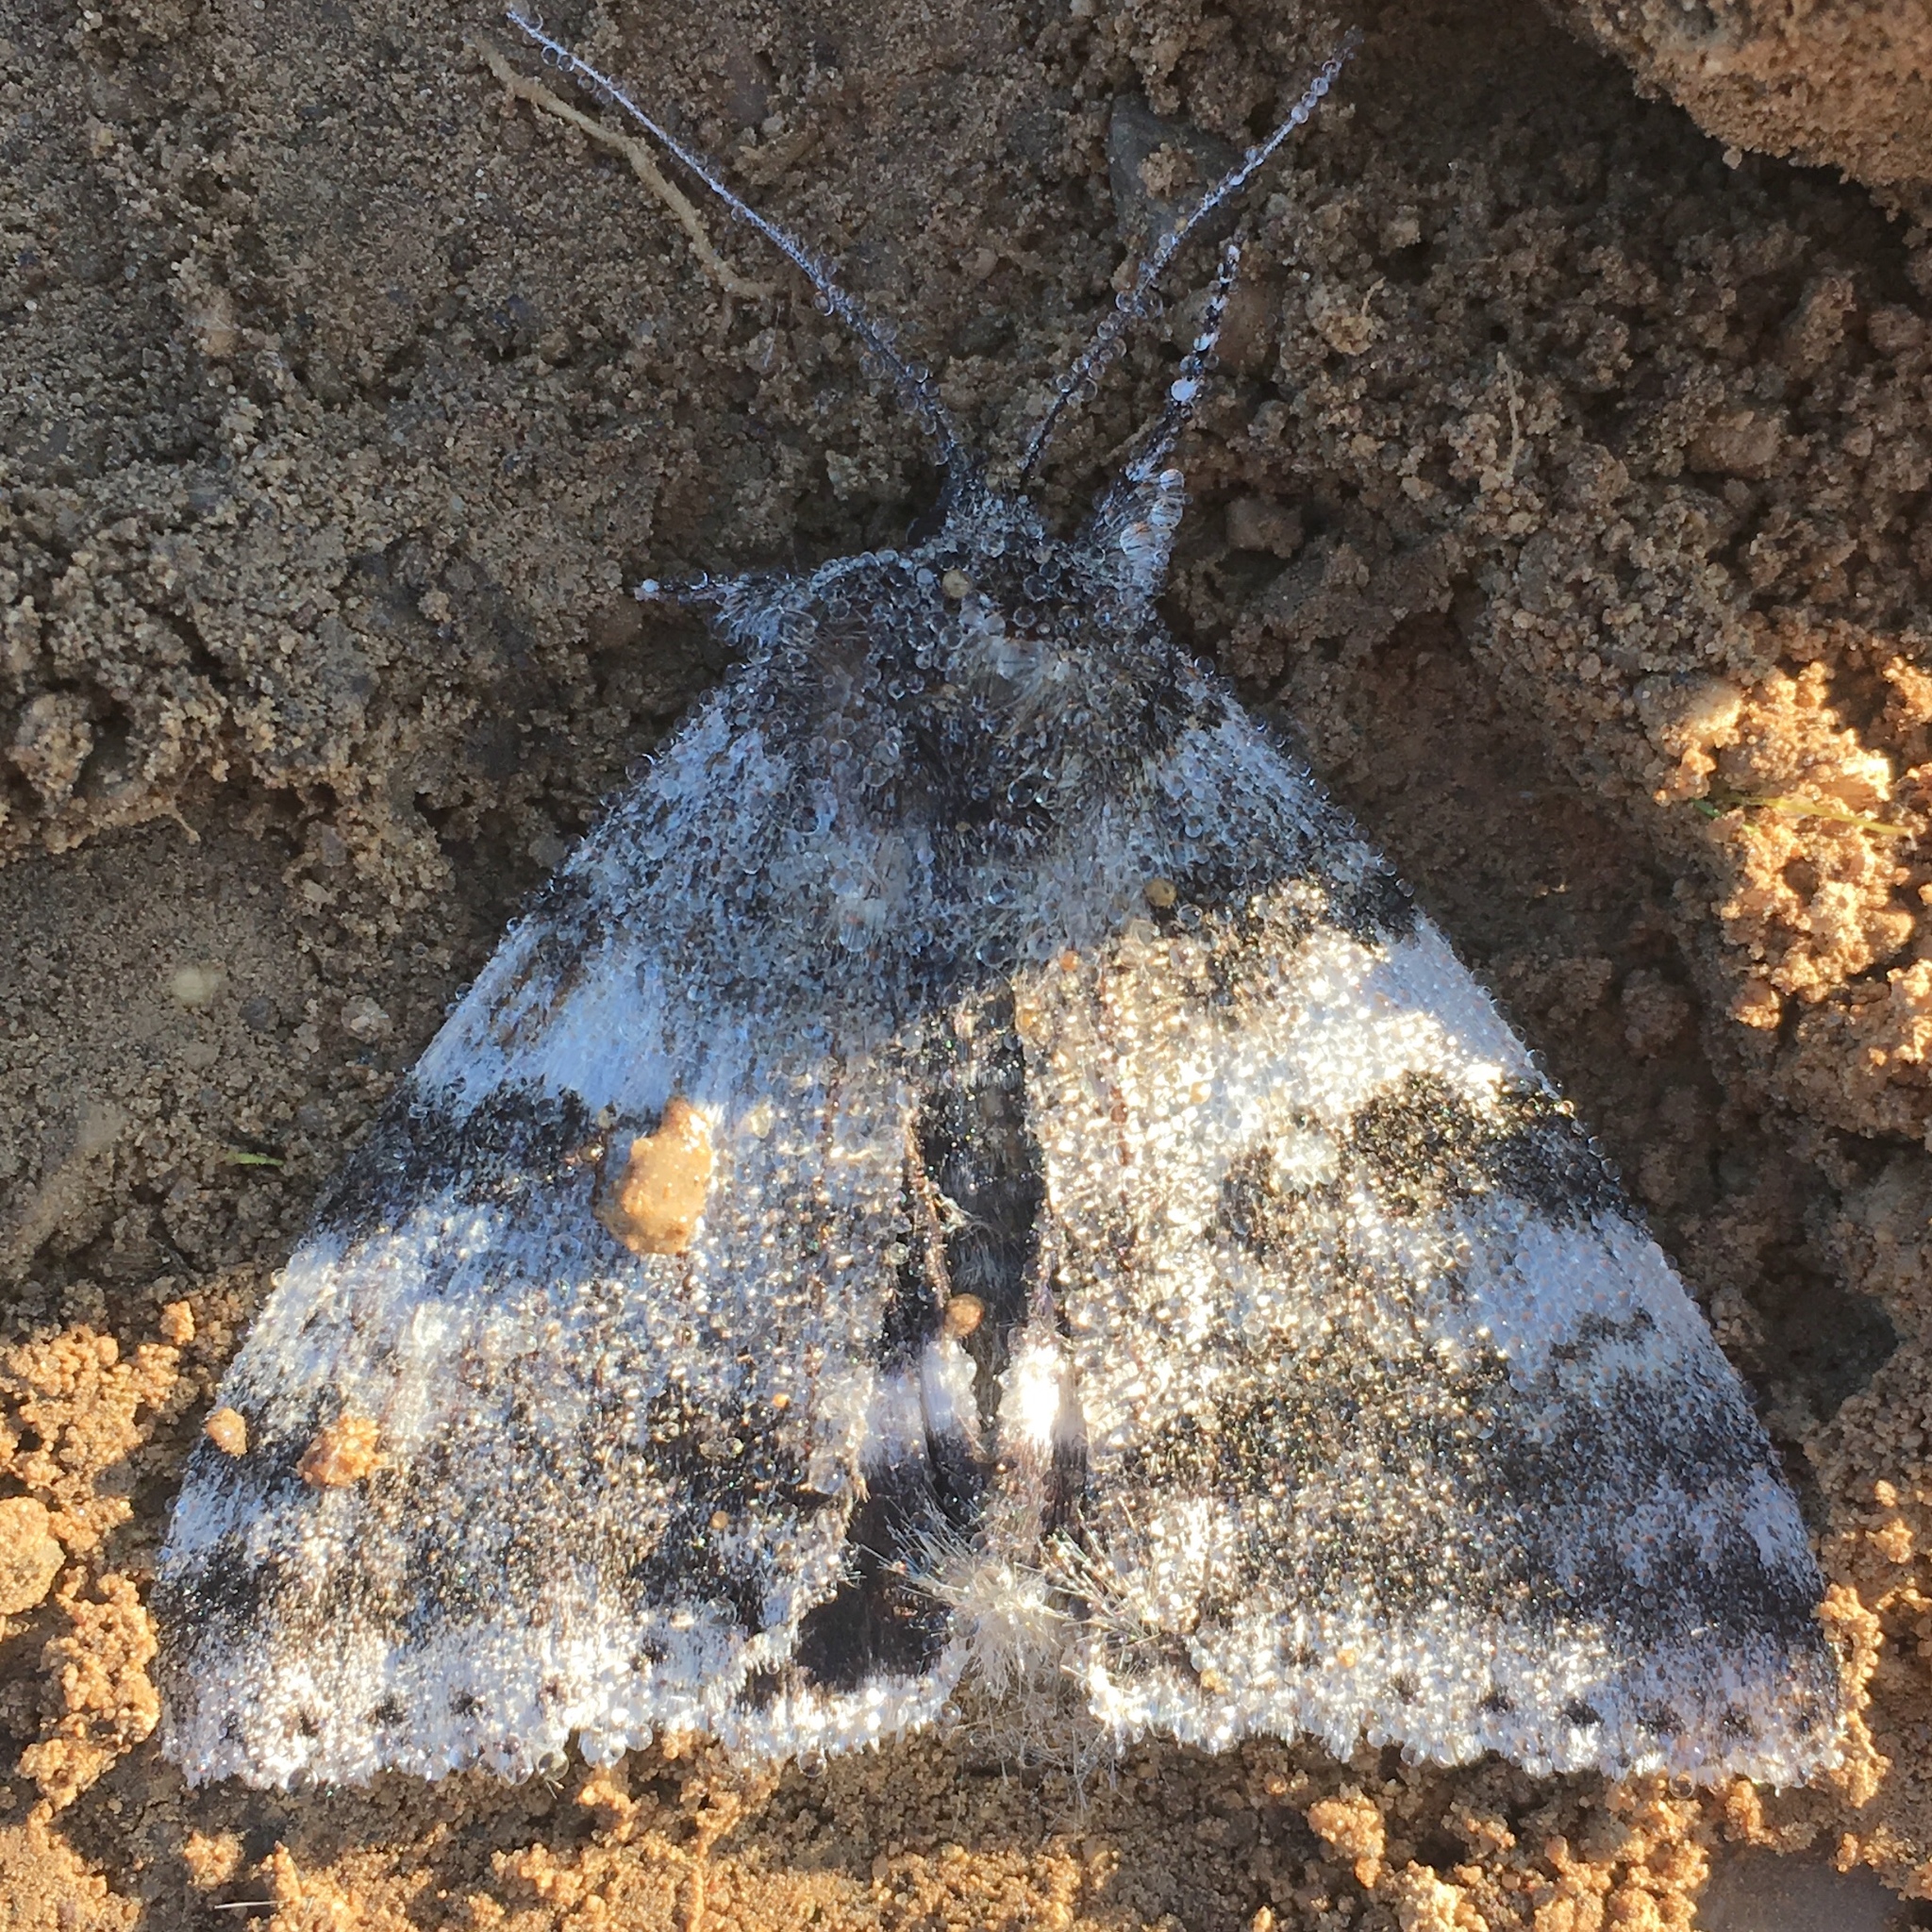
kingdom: Animalia
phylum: Arthropoda
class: Insecta
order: Lepidoptera
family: Erebidae
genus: Catocala
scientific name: Catocala relicta
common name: White underwing
